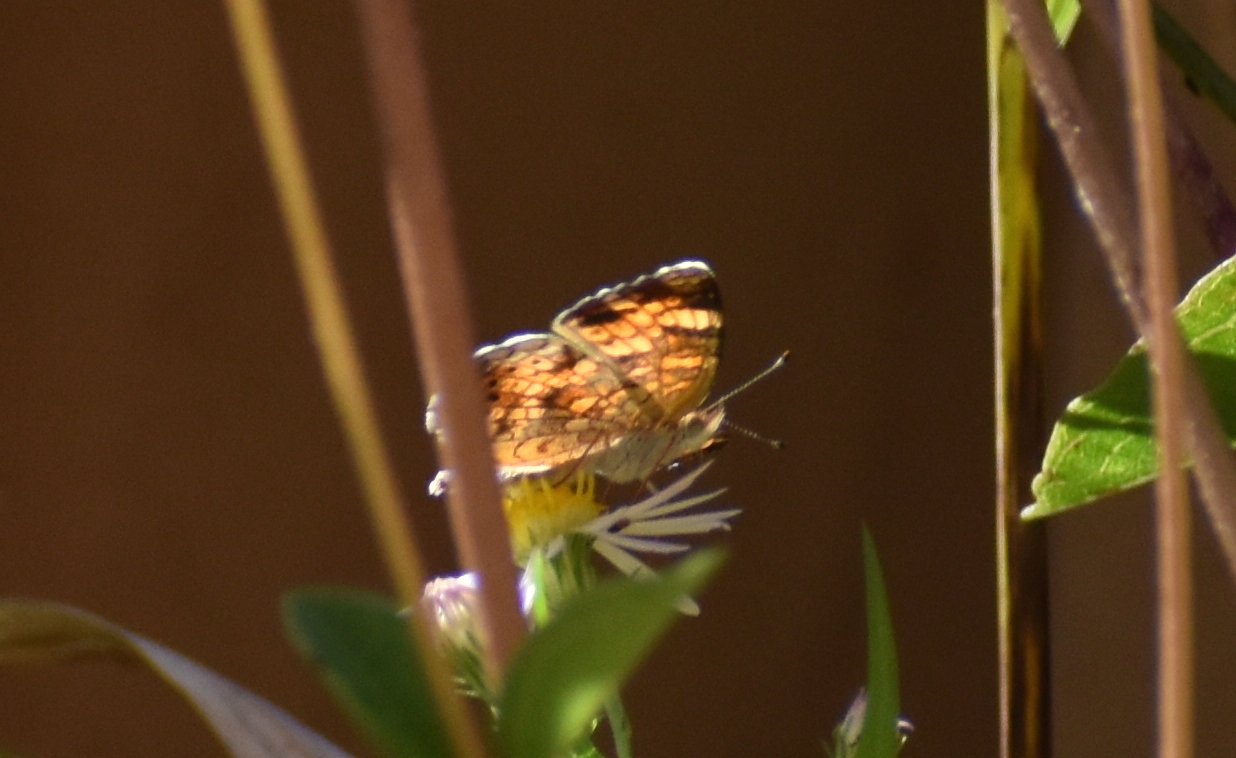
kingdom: Animalia
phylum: Arthropoda
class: Insecta
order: Lepidoptera
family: Nymphalidae
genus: Phyciodes
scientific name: Phyciodes tharos
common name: Pearl crescent
